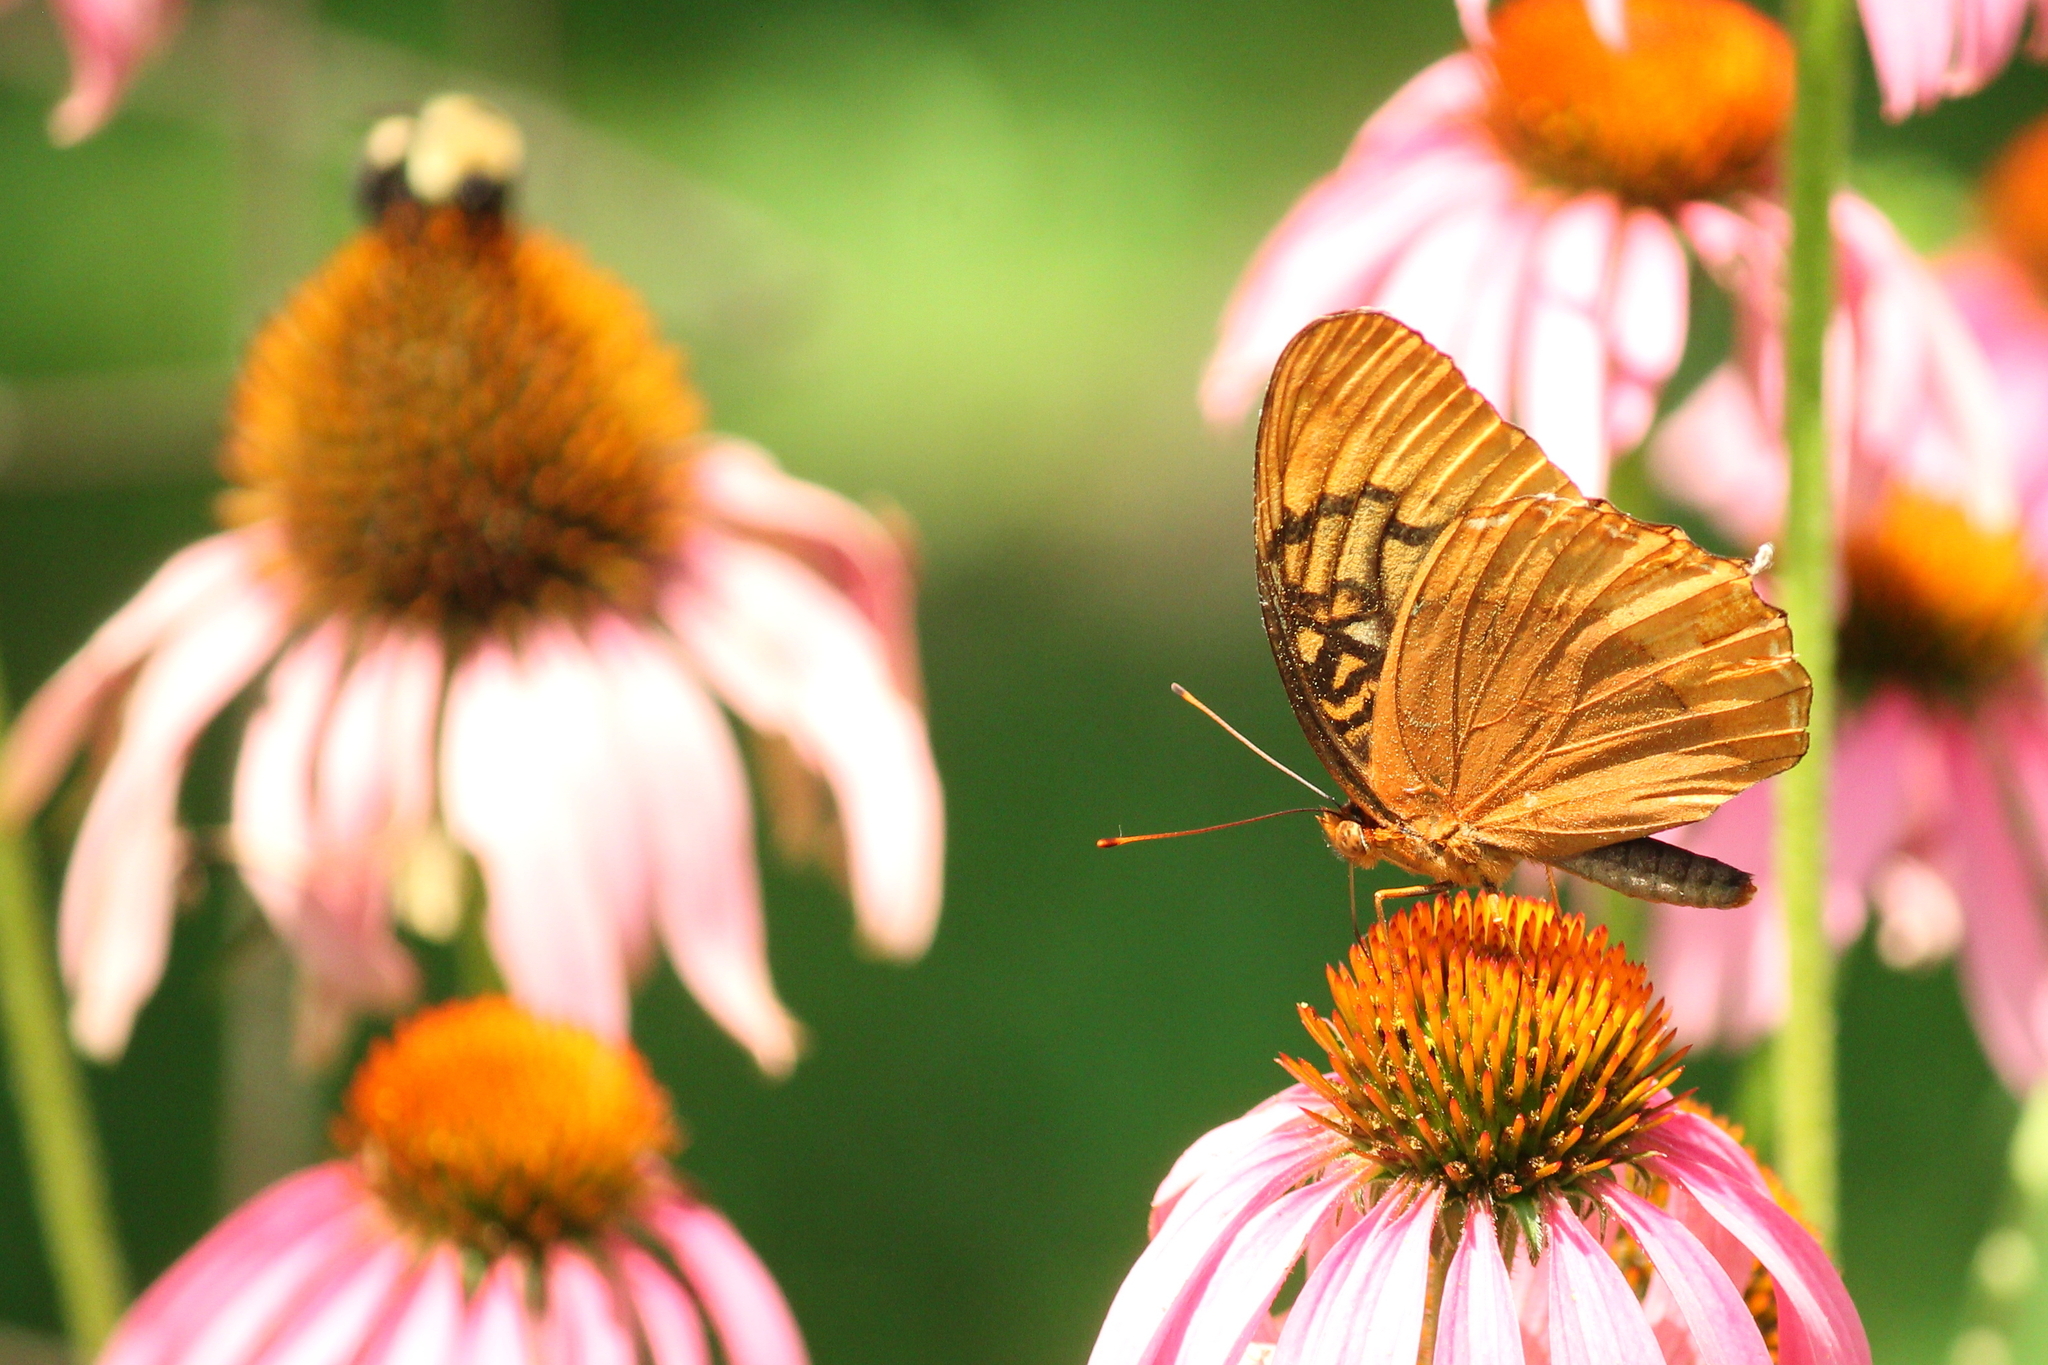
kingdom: Animalia
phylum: Arthropoda
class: Insecta
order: Lepidoptera
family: Nymphalidae
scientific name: Nymphalidae
